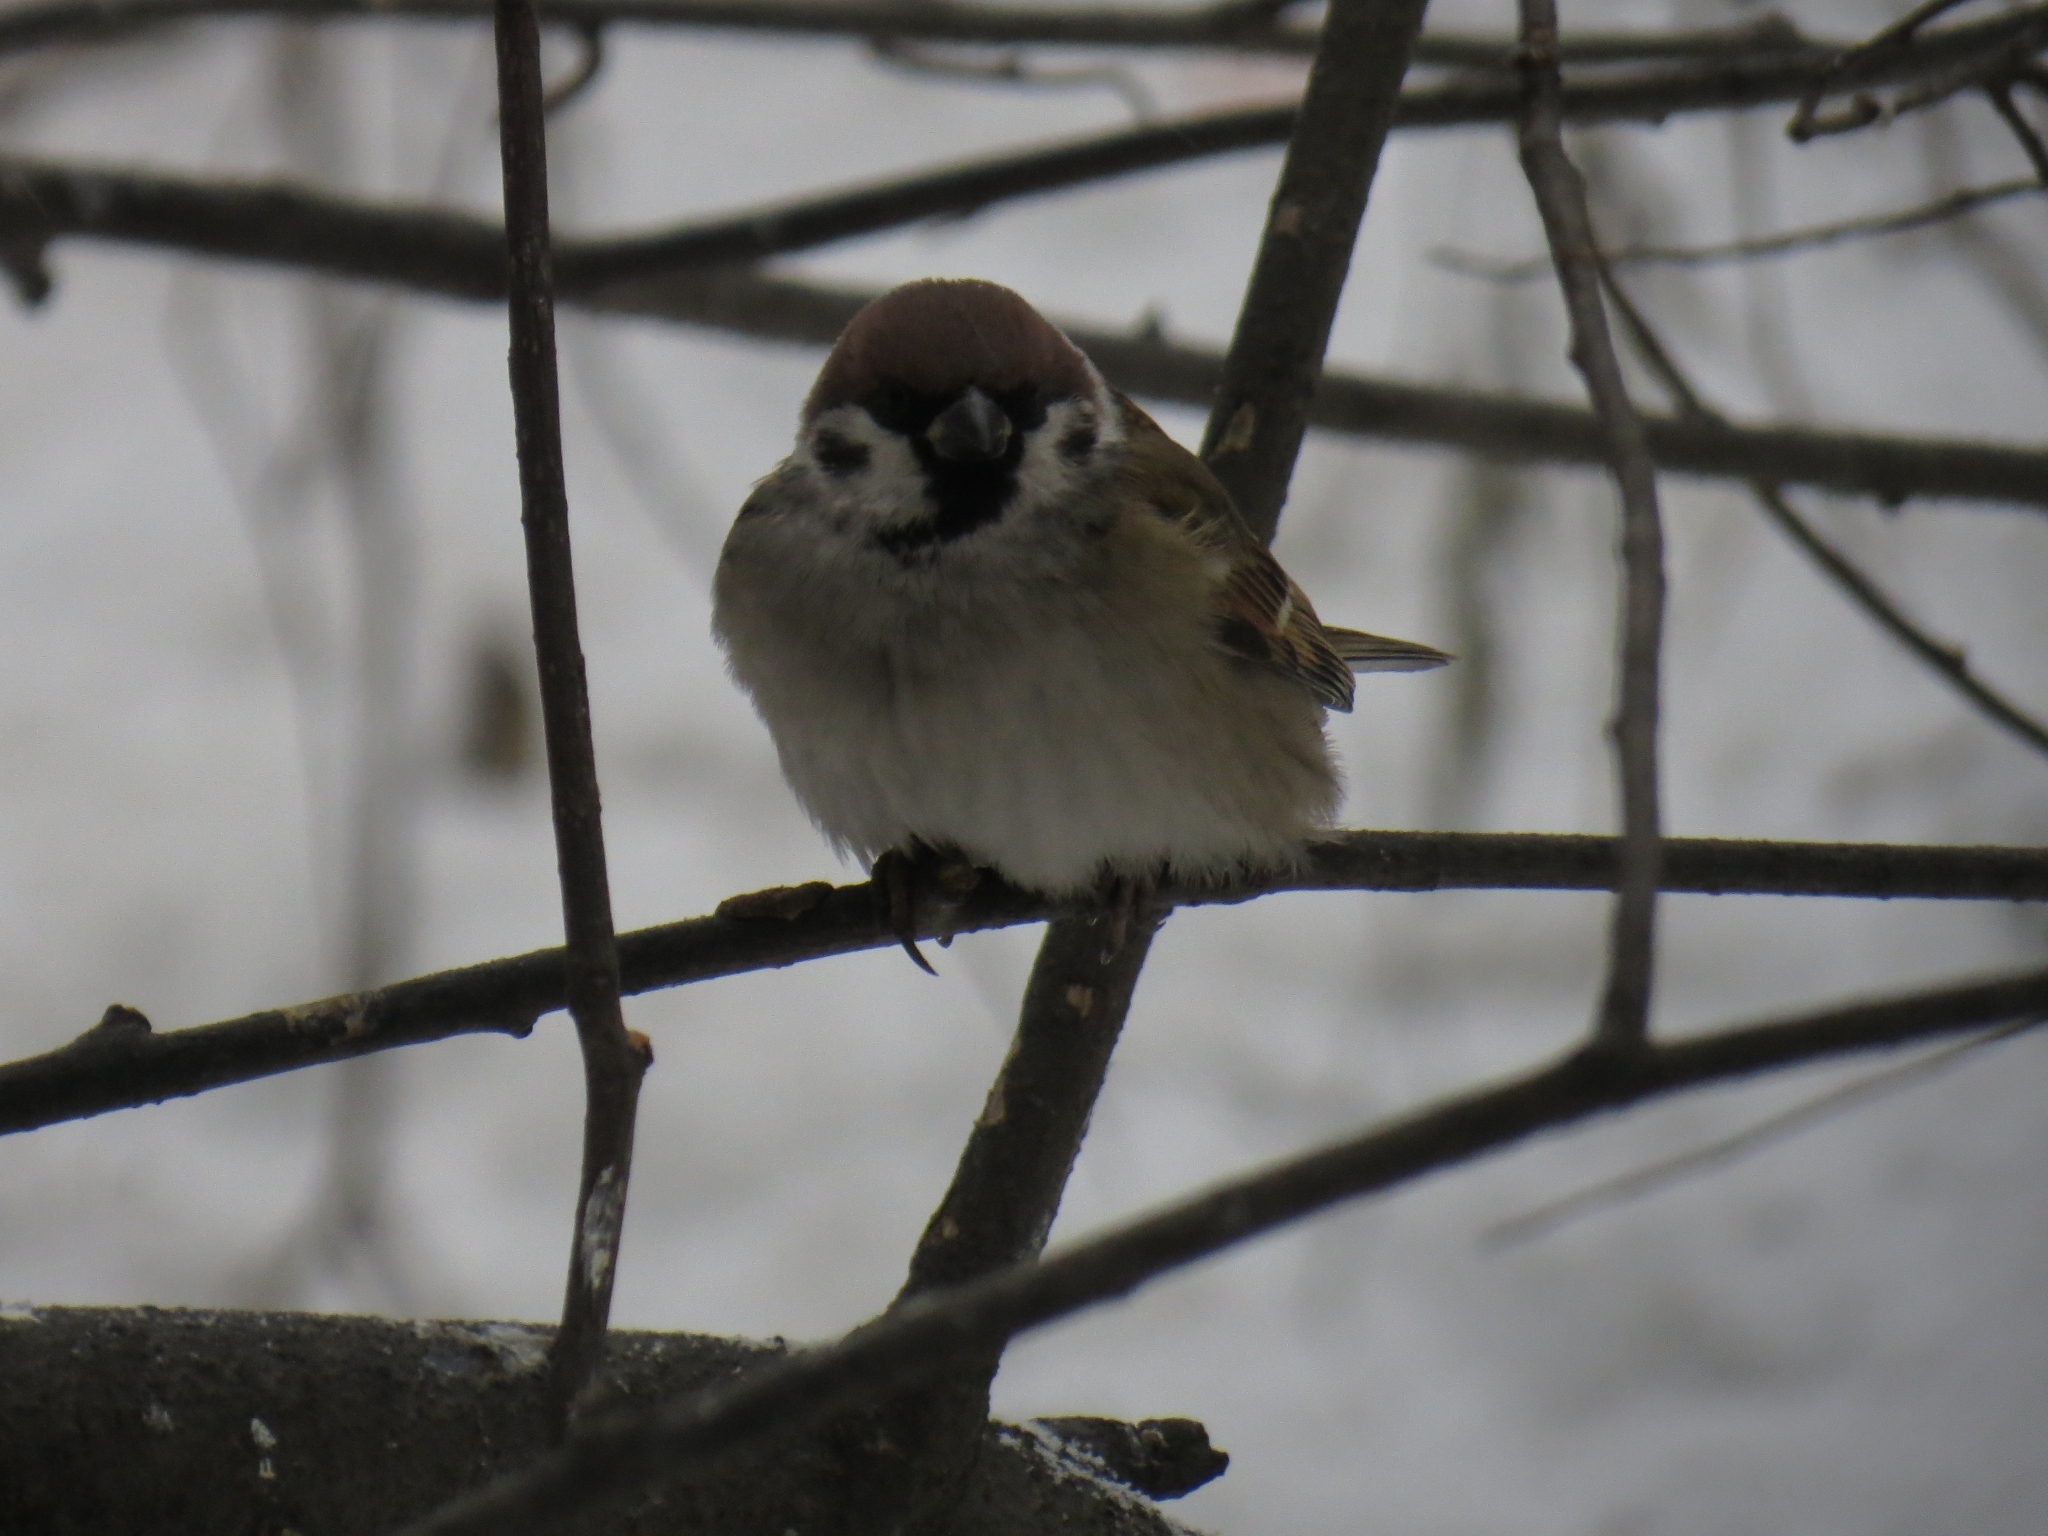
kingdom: Animalia
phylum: Chordata
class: Aves
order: Passeriformes
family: Passeridae
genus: Passer
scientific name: Passer montanus
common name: Eurasian tree sparrow
